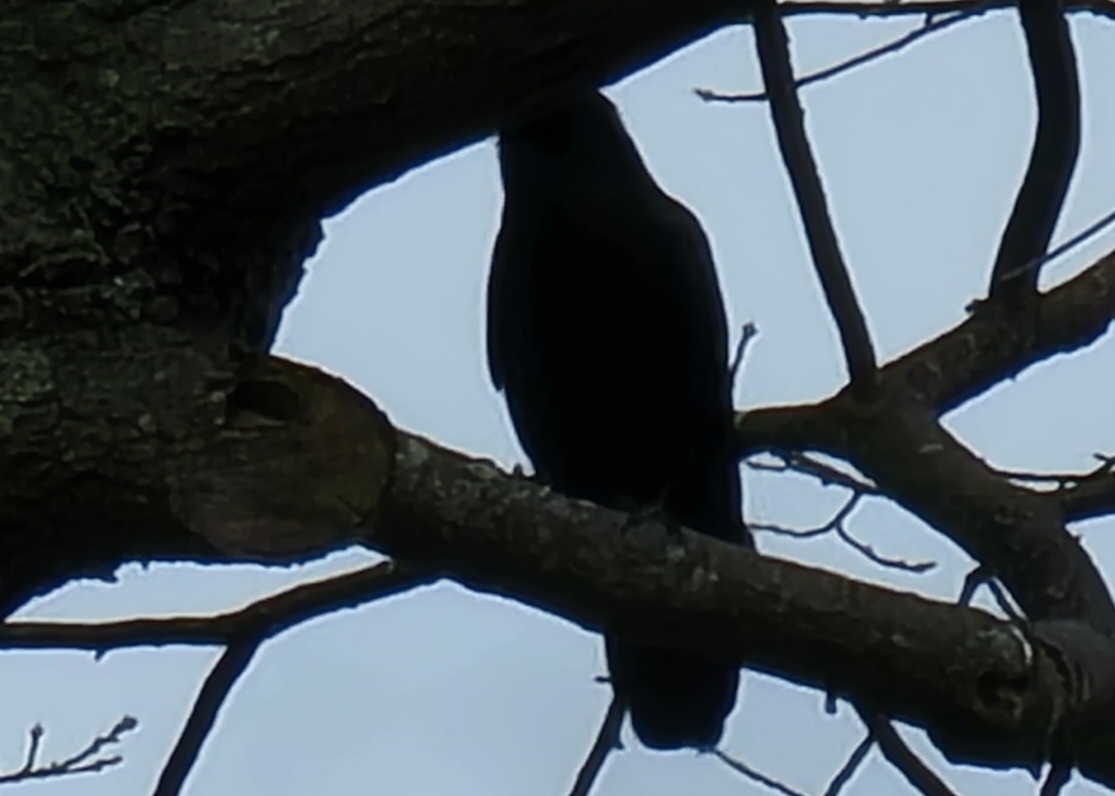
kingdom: Animalia
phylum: Chordata
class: Aves
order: Passeriformes
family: Corvidae
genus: Corvus
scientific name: Corvus ossifragus
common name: Fish crow
